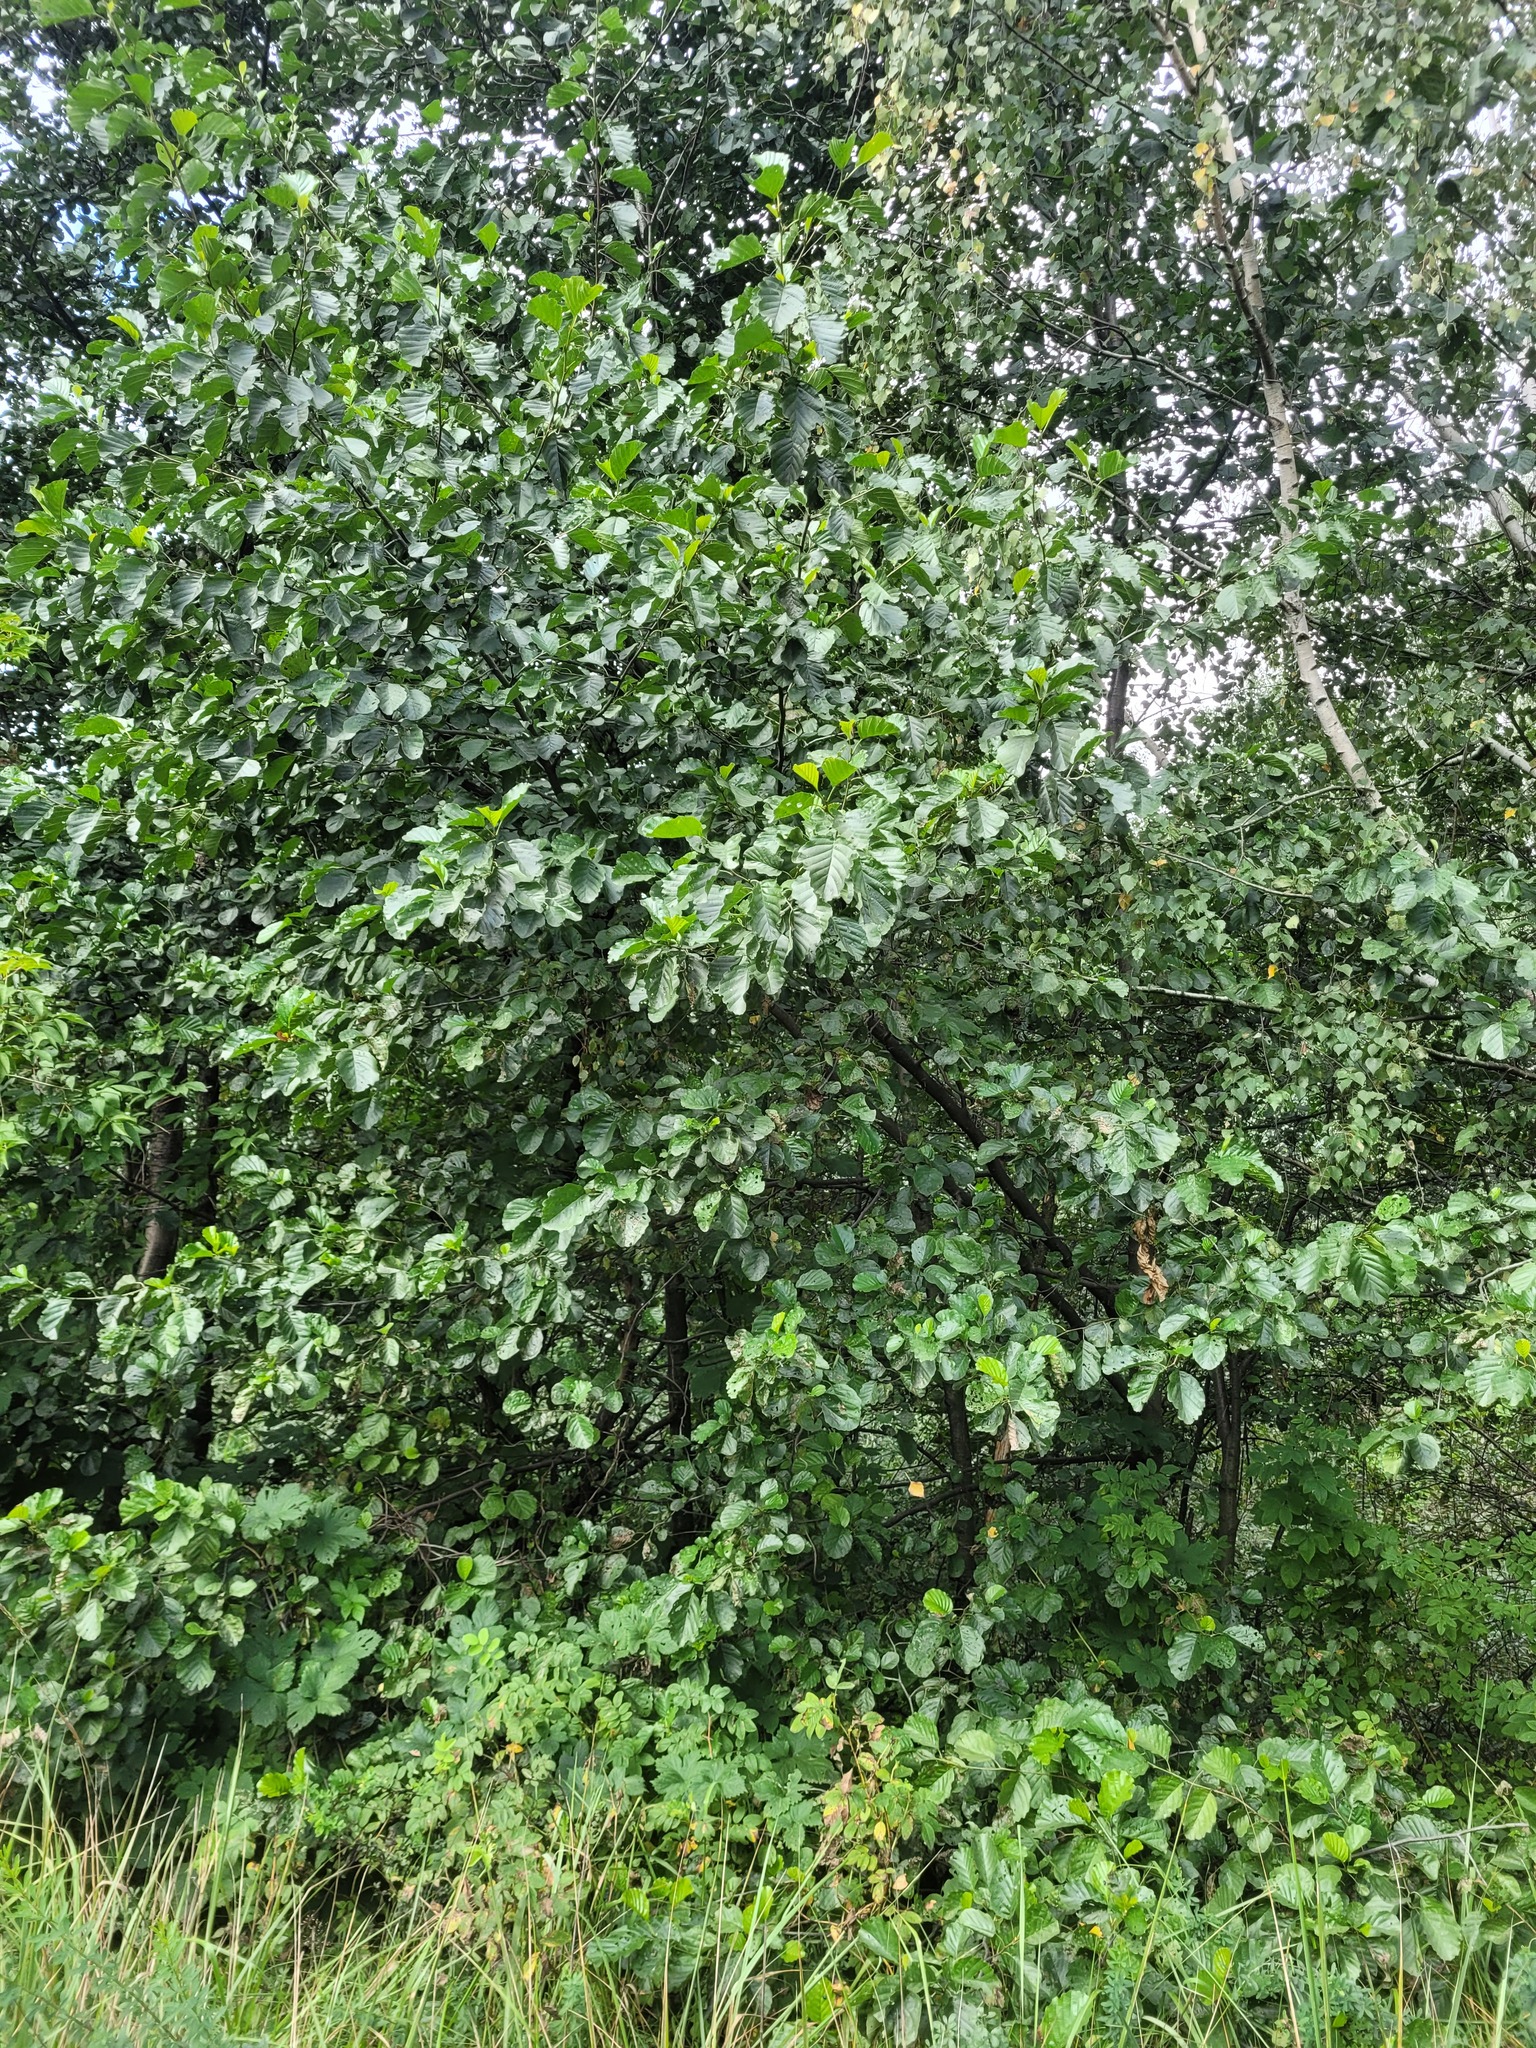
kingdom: Plantae
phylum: Tracheophyta
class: Magnoliopsida
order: Fagales
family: Betulaceae
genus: Alnus
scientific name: Alnus glutinosa
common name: Black alder
